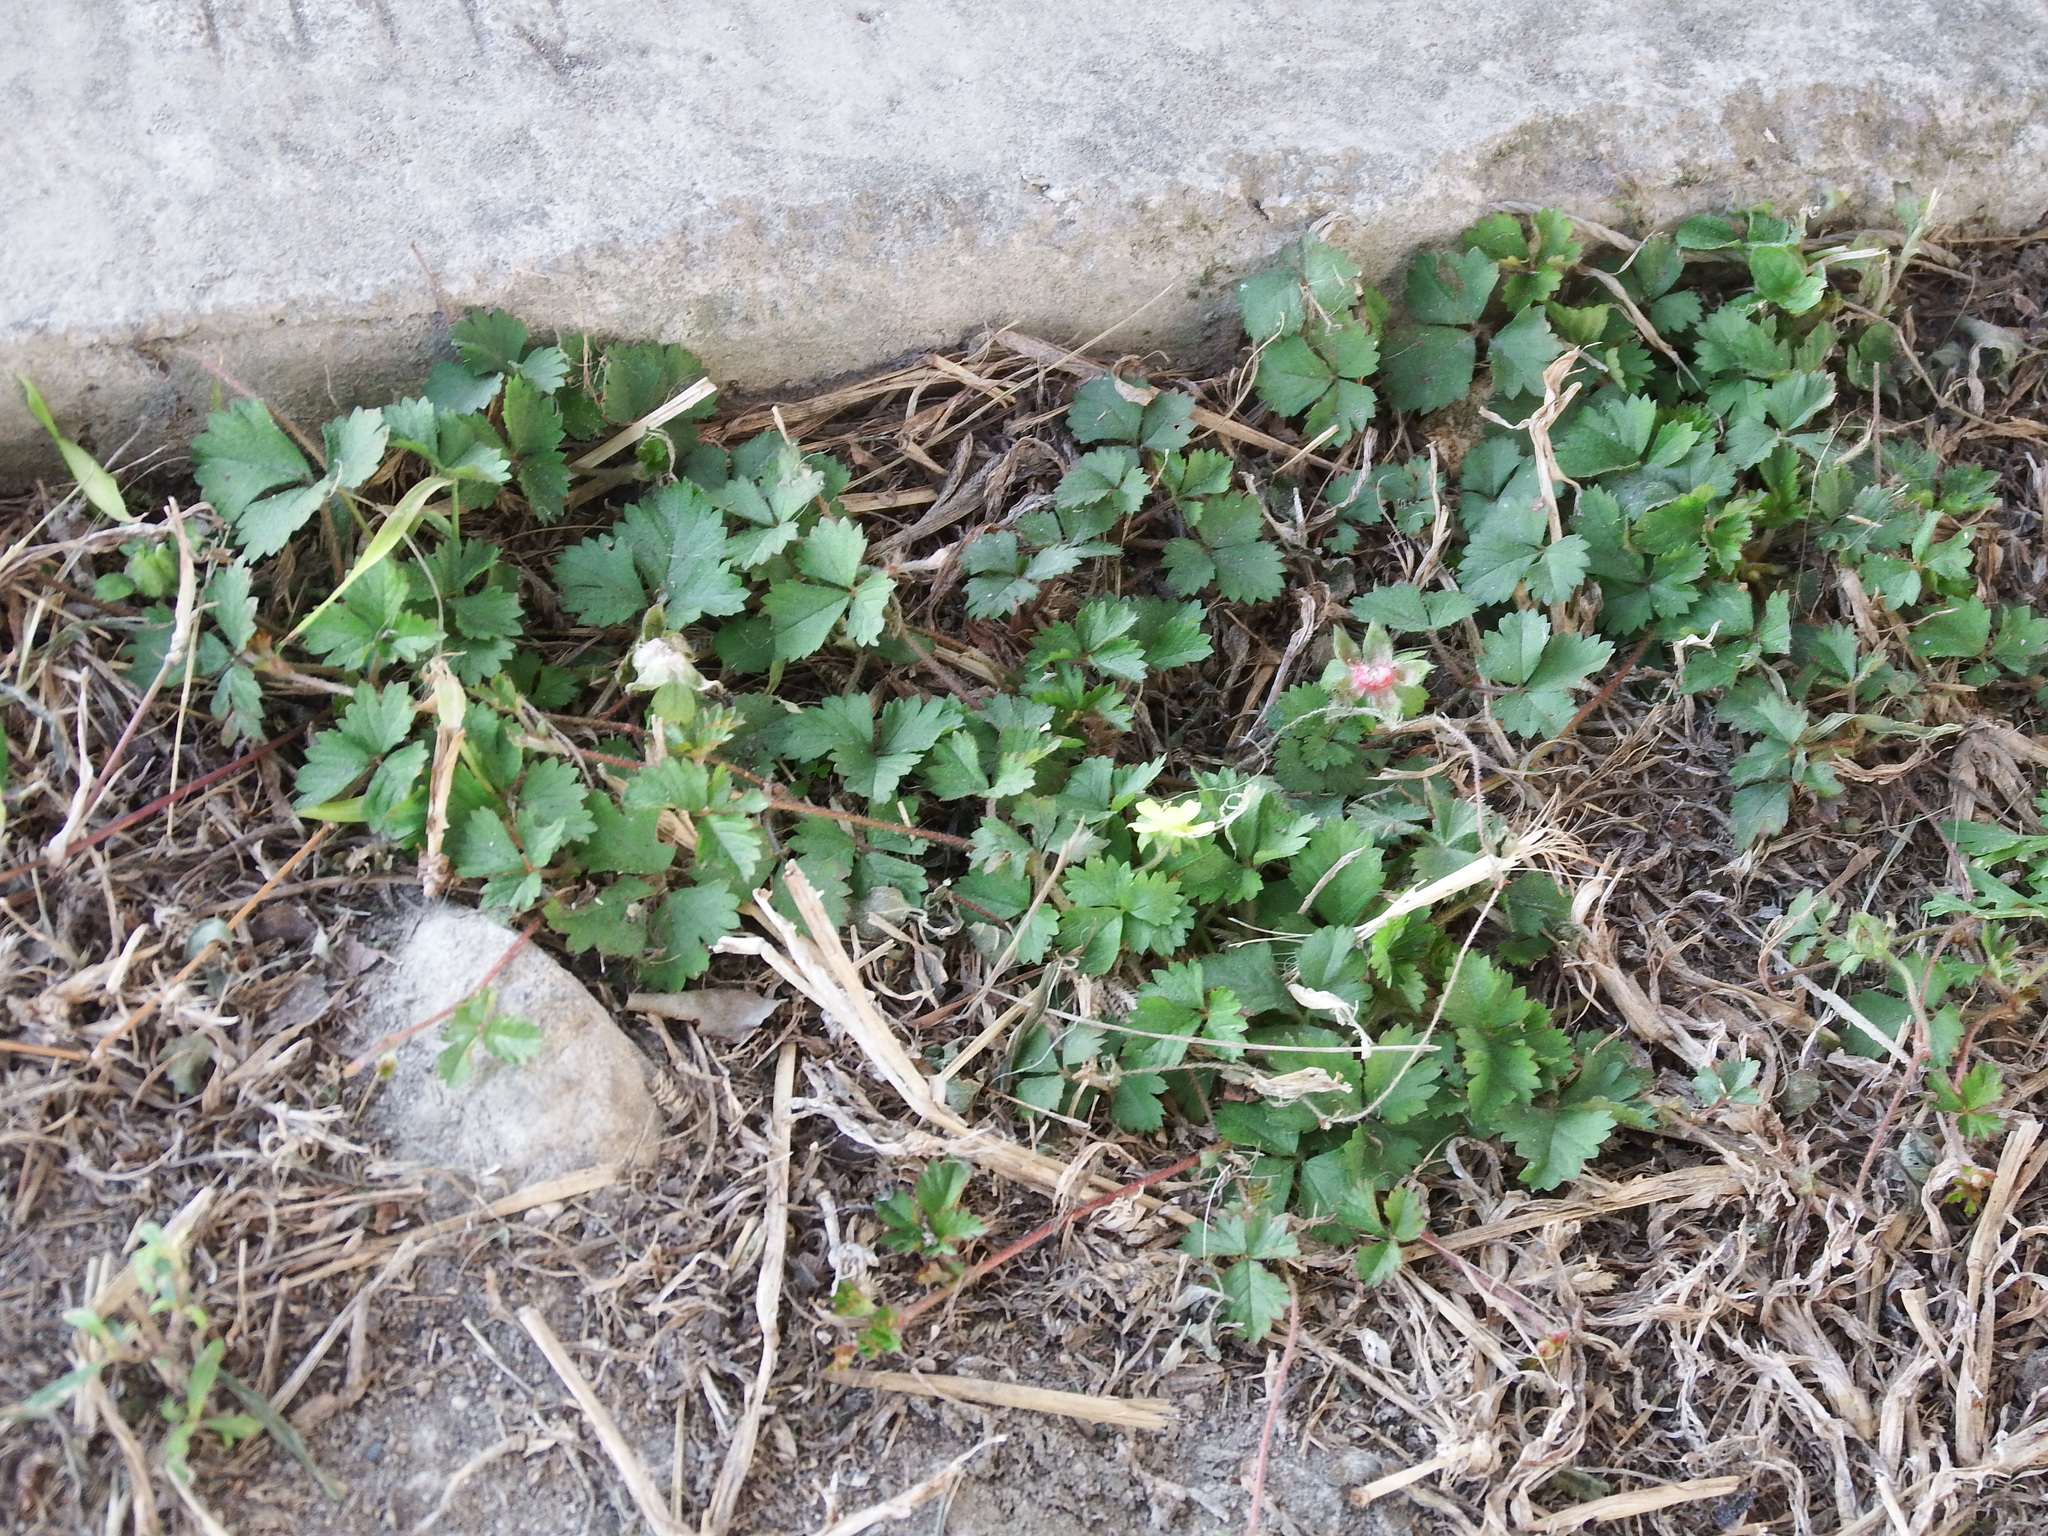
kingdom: Plantae
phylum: Tracheophyta
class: Magnoliopsida
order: Rosales
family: Rosaceae
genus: Potentilla
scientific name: Potentilla wallichiana
